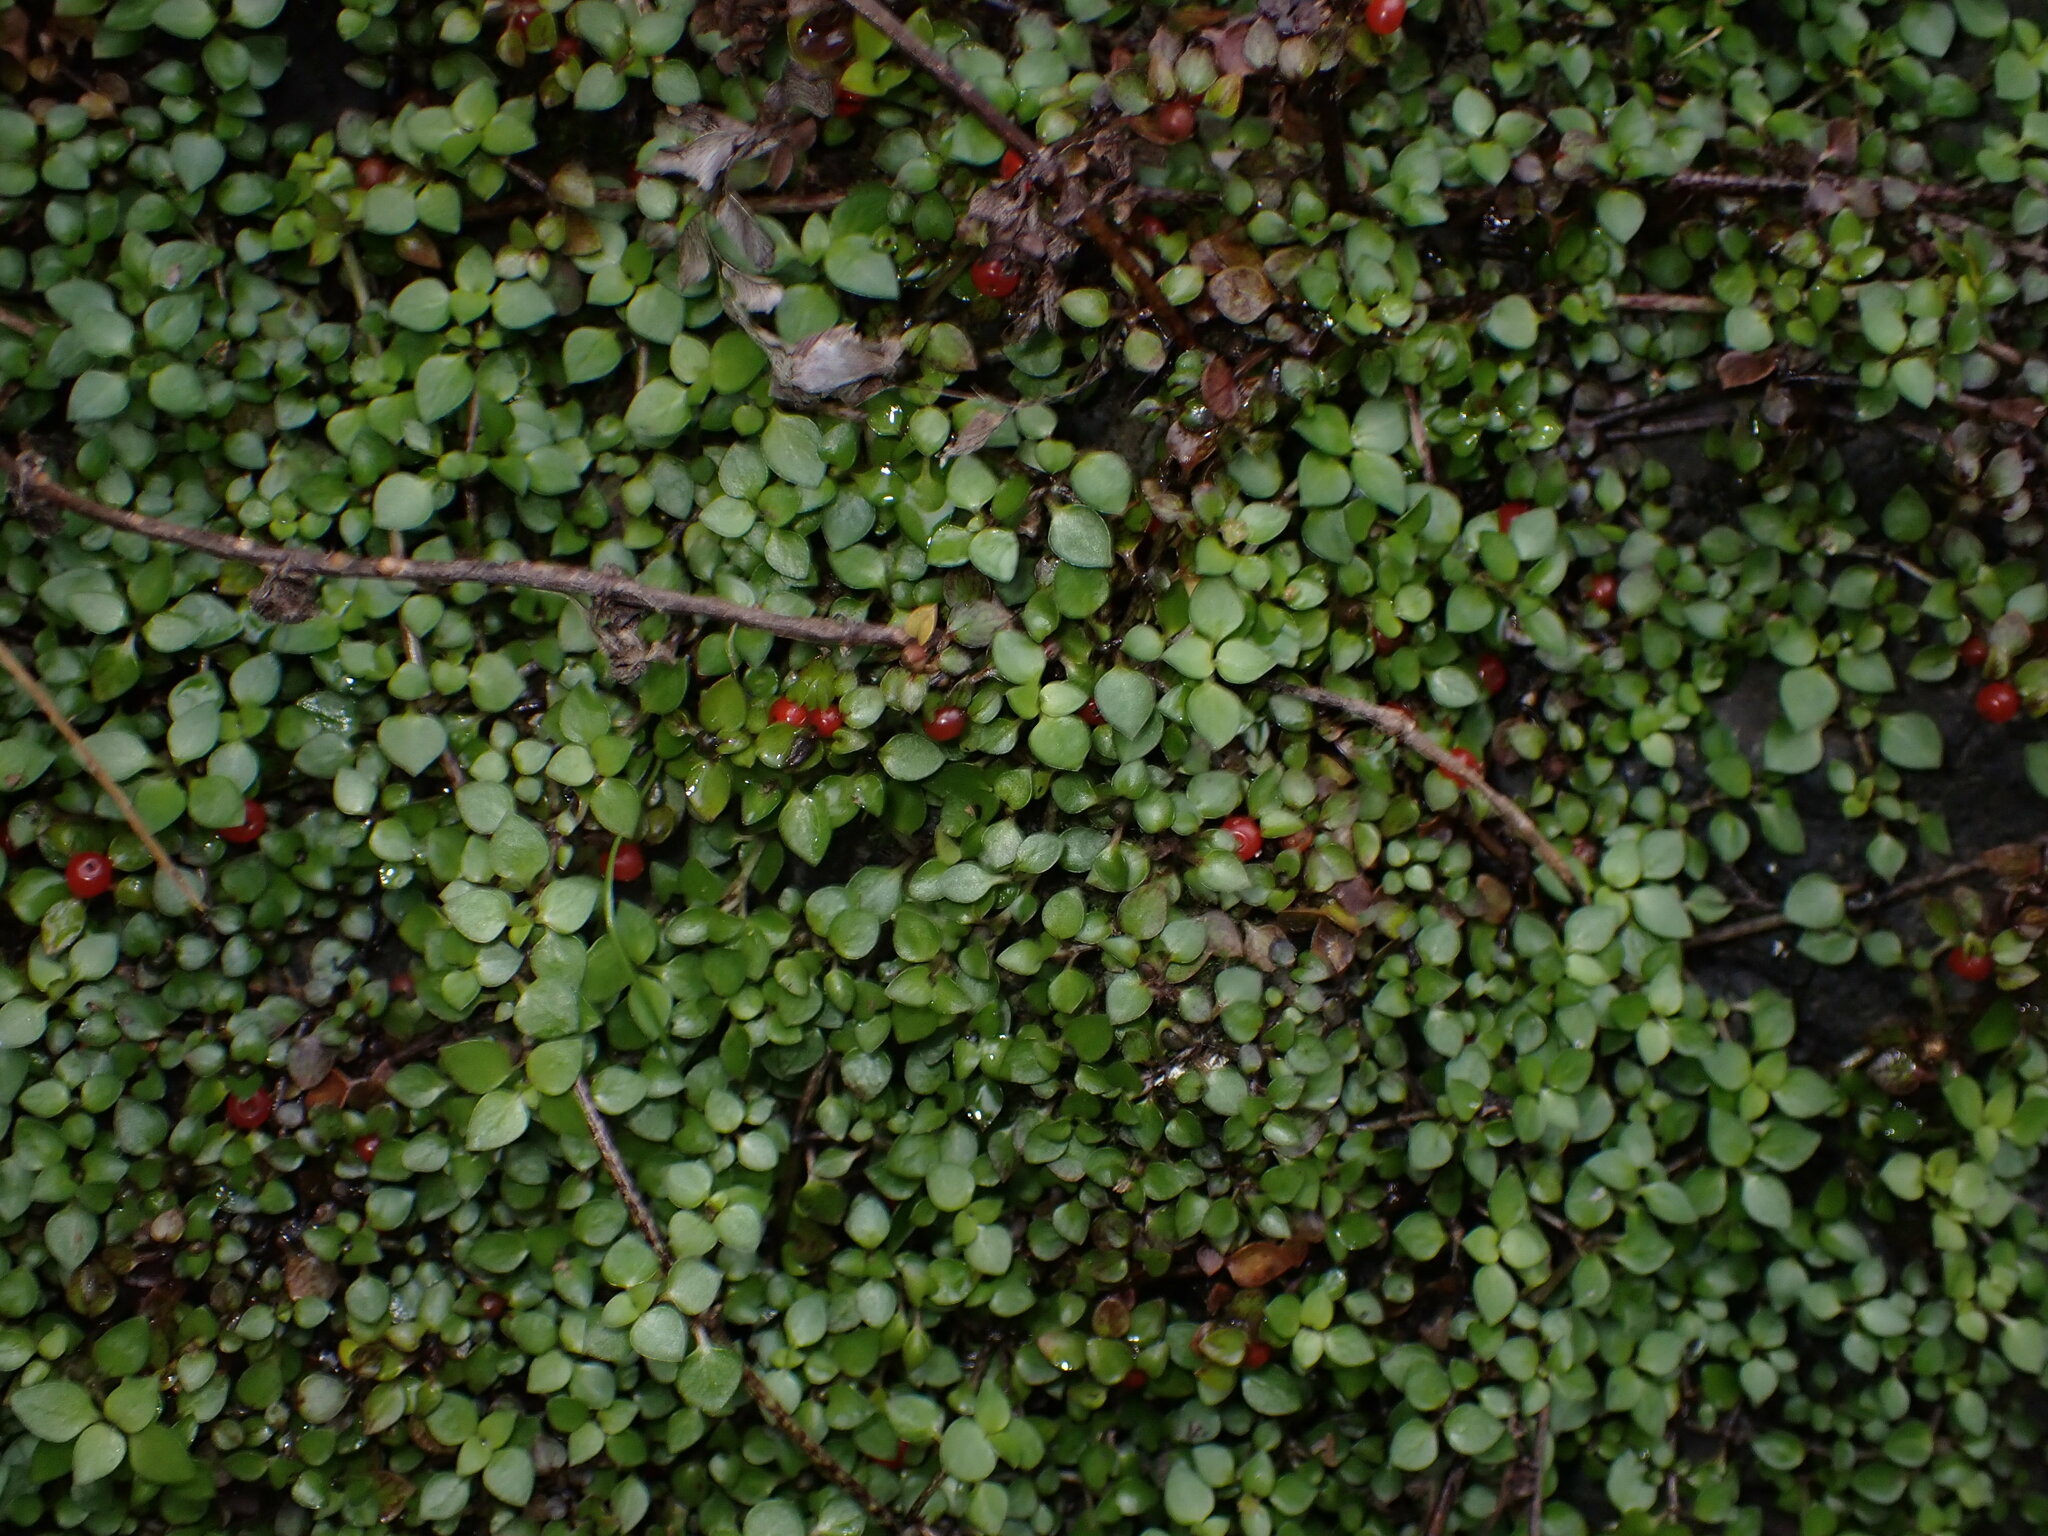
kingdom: Plantae
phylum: Tracheophyta
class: Magnoliopsida
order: Gentianales
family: Rubiaceae
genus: Nertera
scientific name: Nertera granadensis
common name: Beadplant
